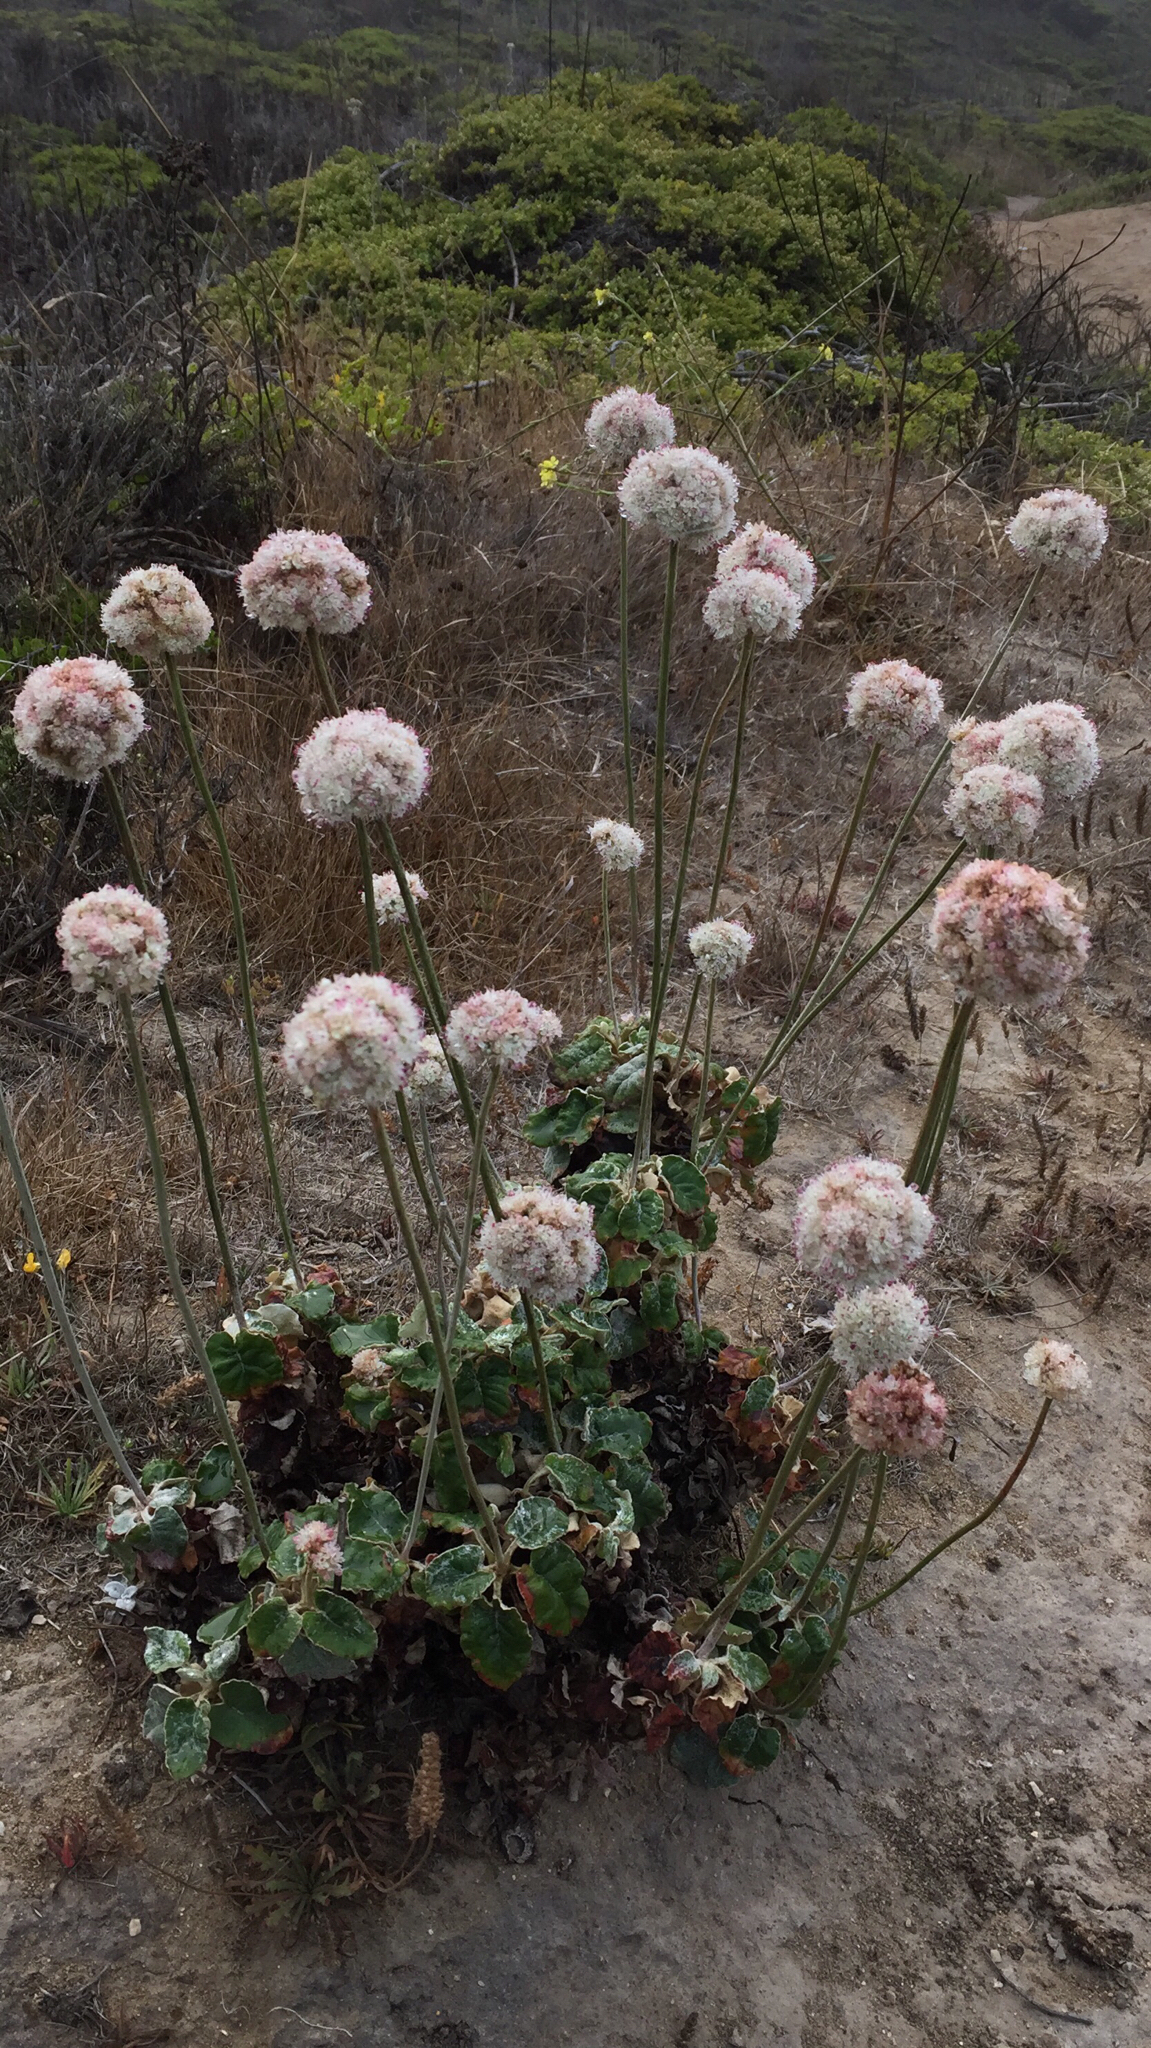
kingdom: Plantae
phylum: Tracheophyta
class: Magnoliopsida
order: Caryophyllales
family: Polygonaceae
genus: Eriogonum
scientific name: Eriogonum latifolium
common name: Seaside wild buckwheat
